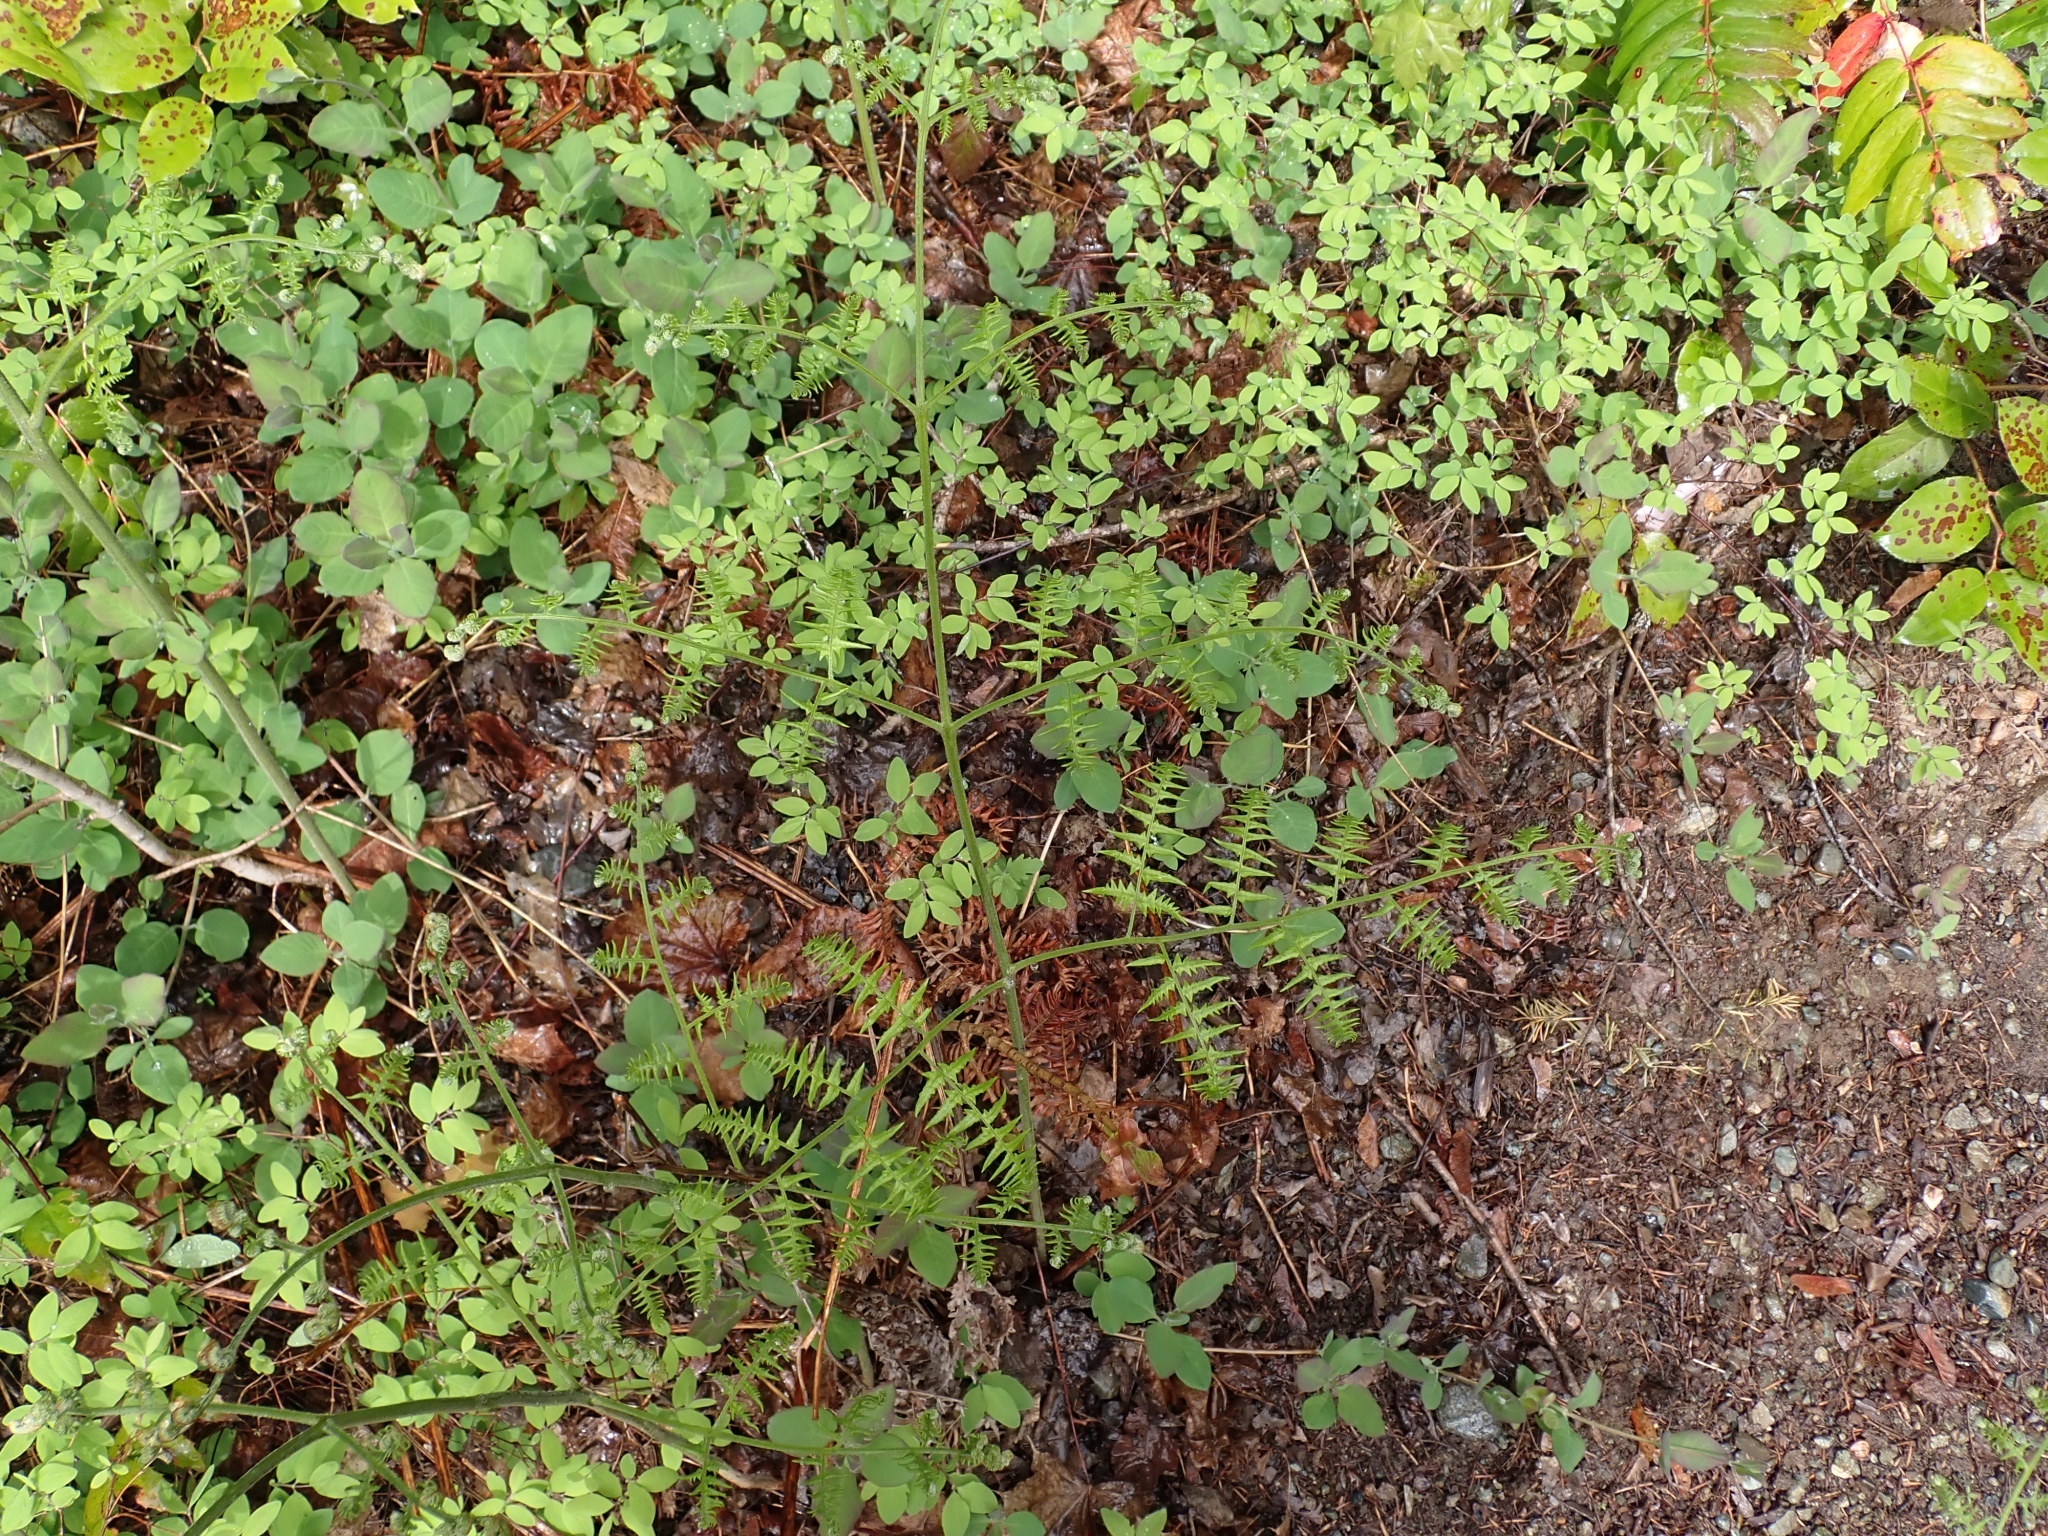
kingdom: Plantae
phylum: Tracheophyta
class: Polypodiopsida
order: Polypodiales
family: Dennstaedtiaceae
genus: Pteridium
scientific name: Pteridium aquilinum
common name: Bracken
